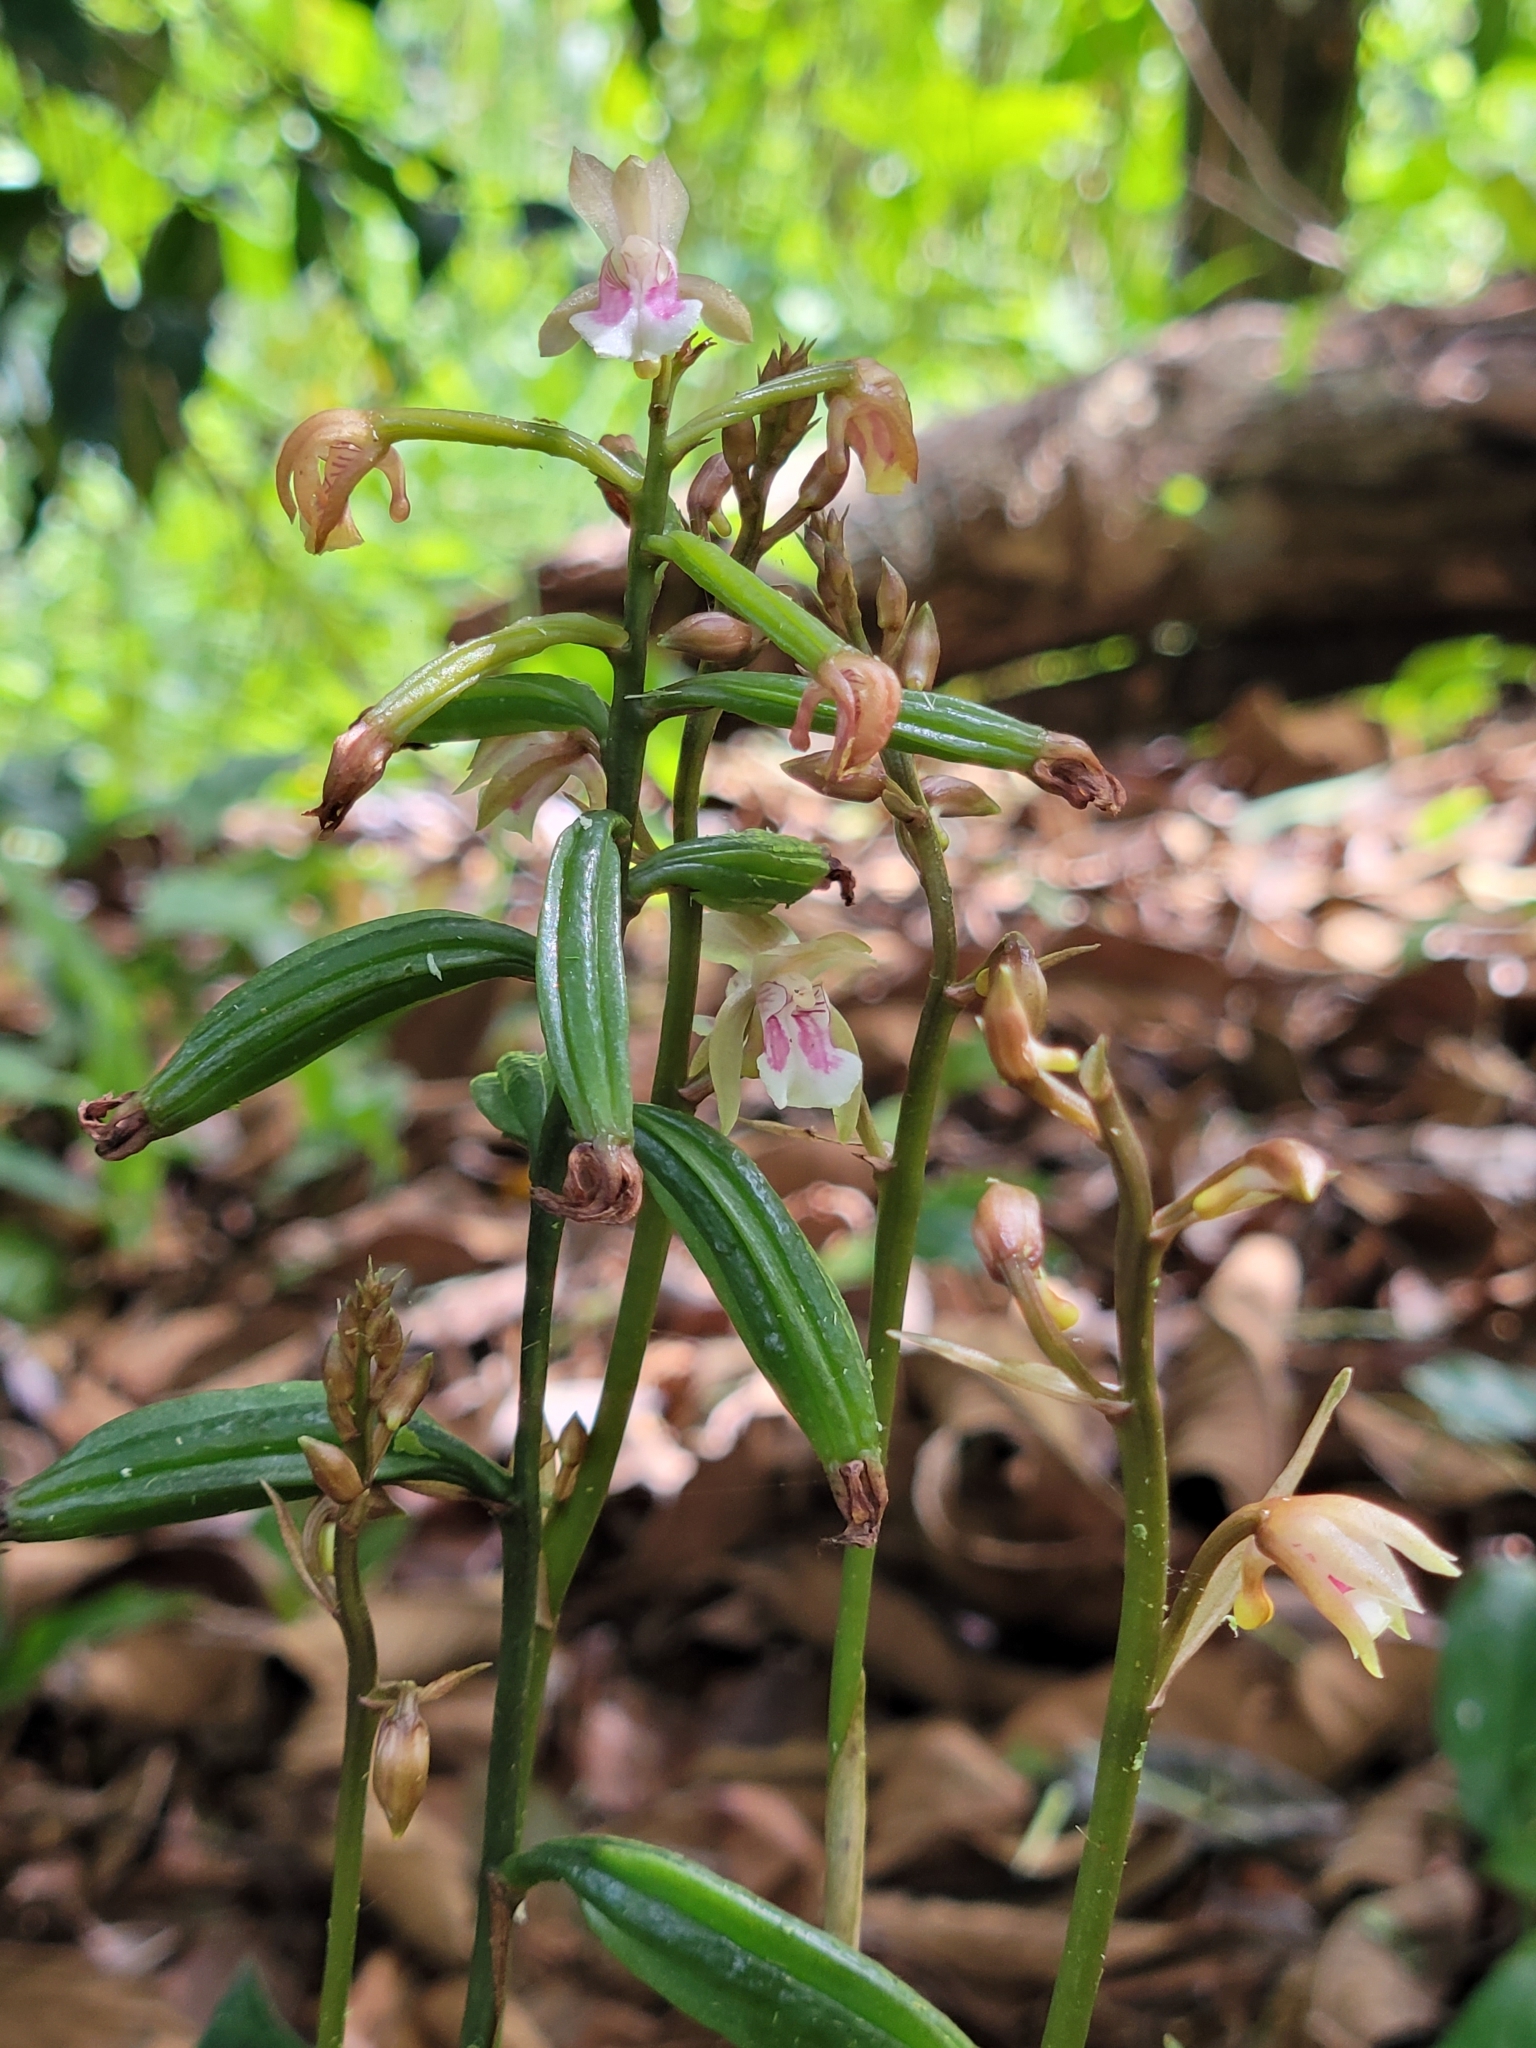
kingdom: Plantae
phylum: Tracheophyta
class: Liliopsida
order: Asparagales
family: Orchidaceae
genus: Eulophia
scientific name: Eulophia maculata
